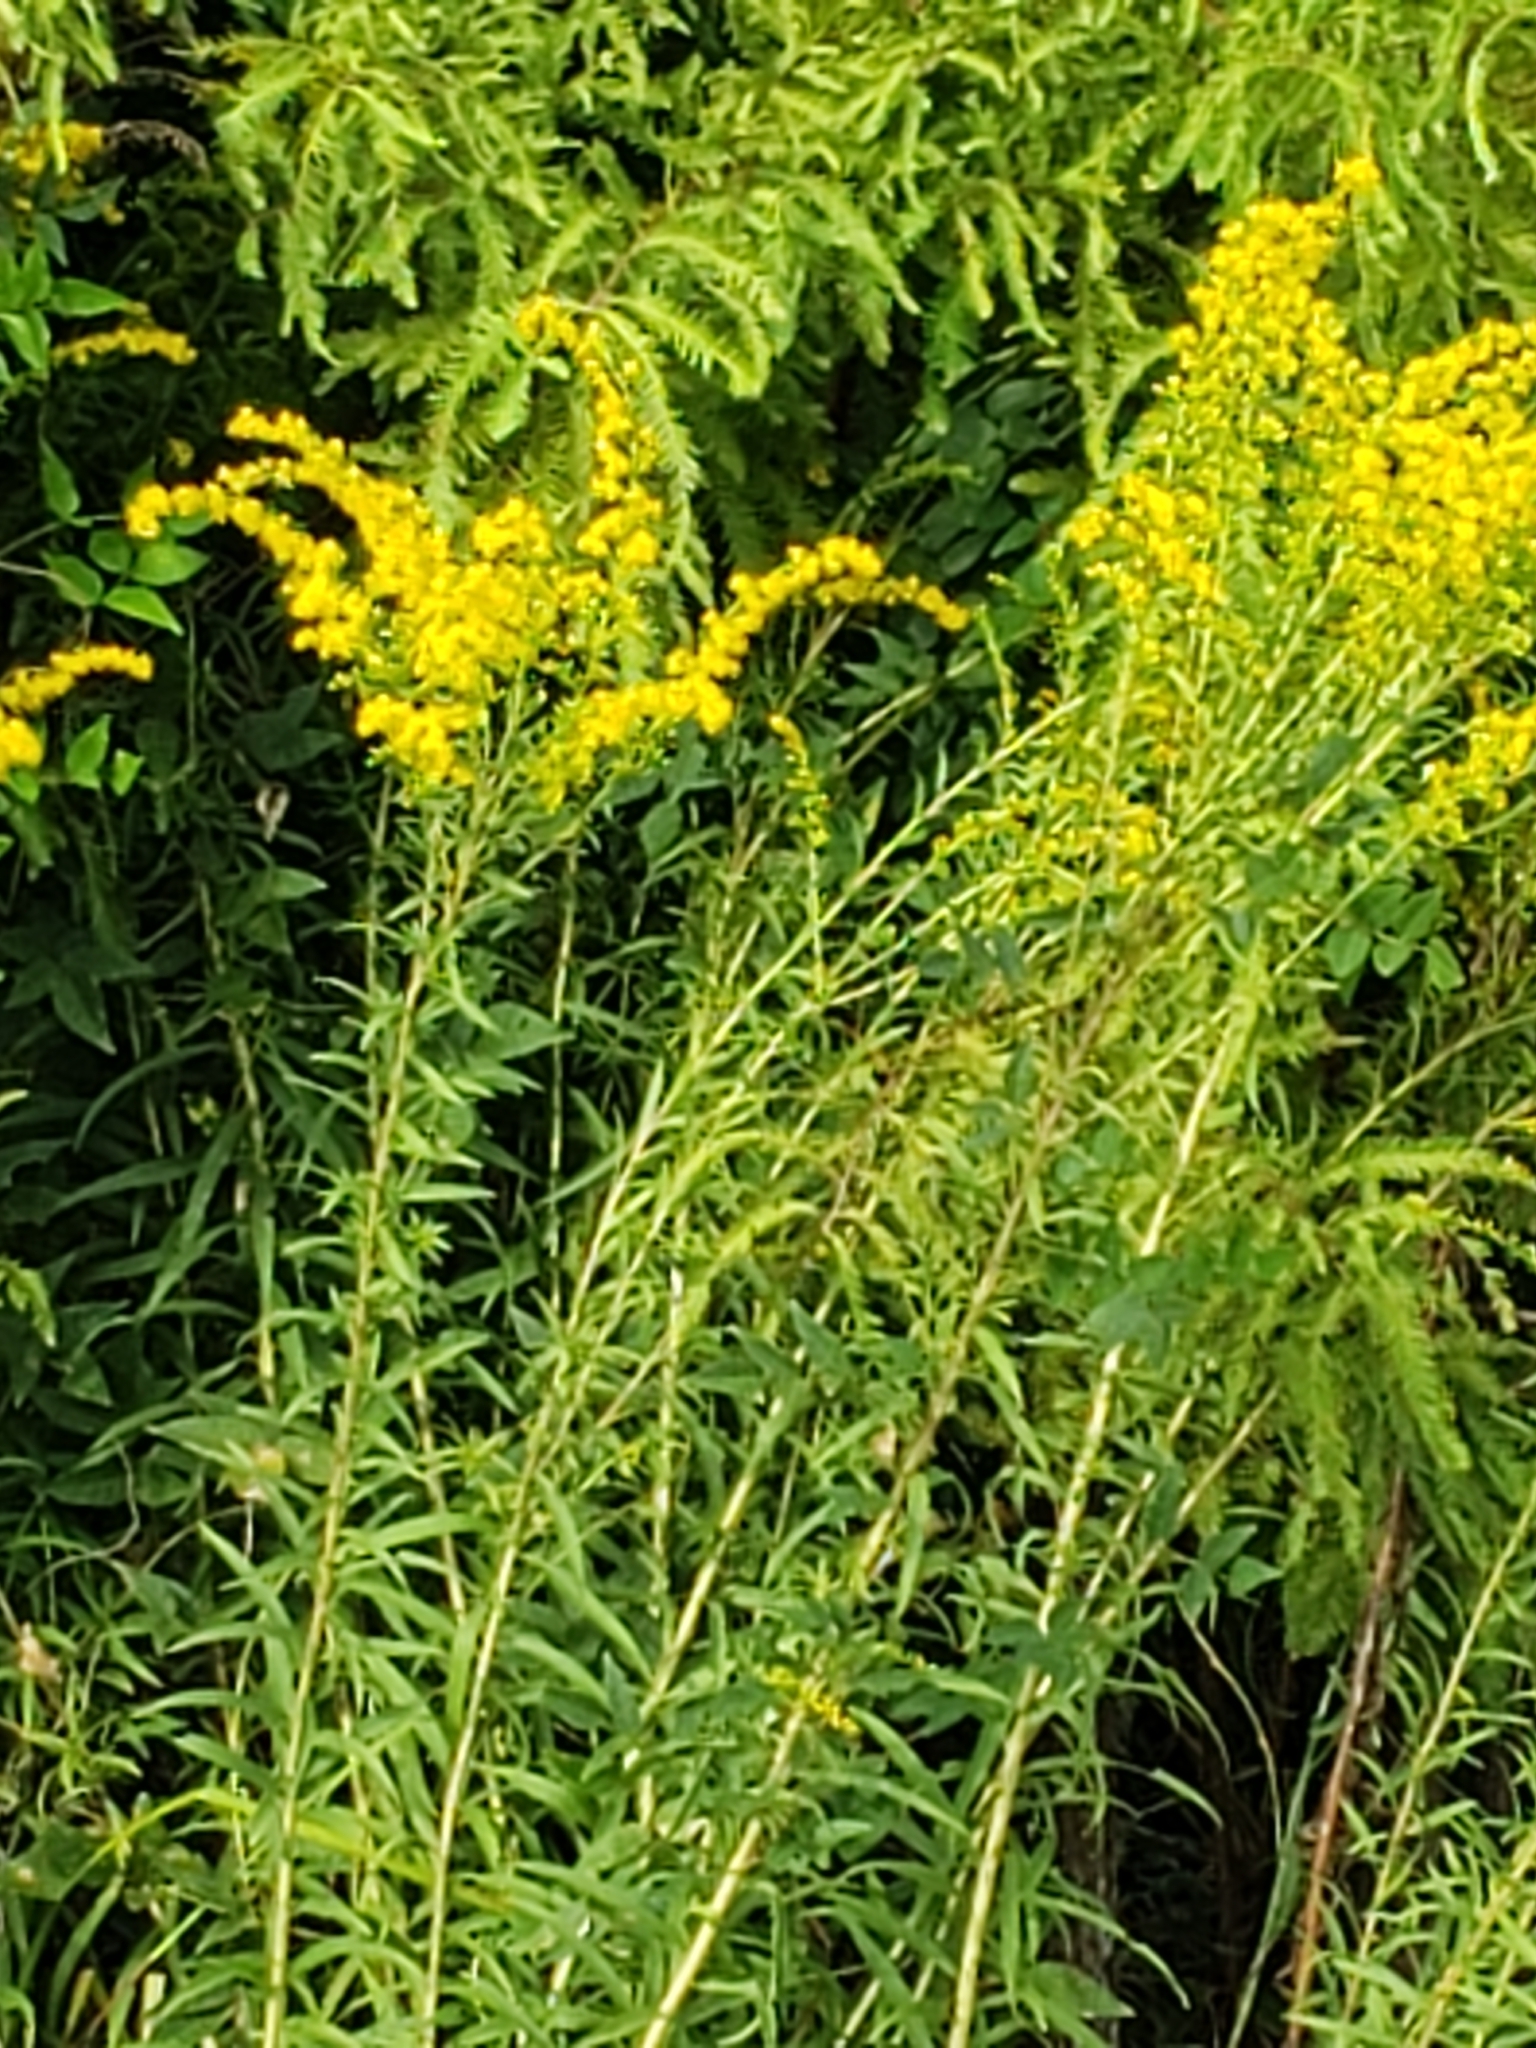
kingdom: Plantae
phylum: Tracheophyta
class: Magnoliopsida
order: Asterales
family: Asteraceae
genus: Solidago
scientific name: Solidago altissima
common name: Late goldenrod
